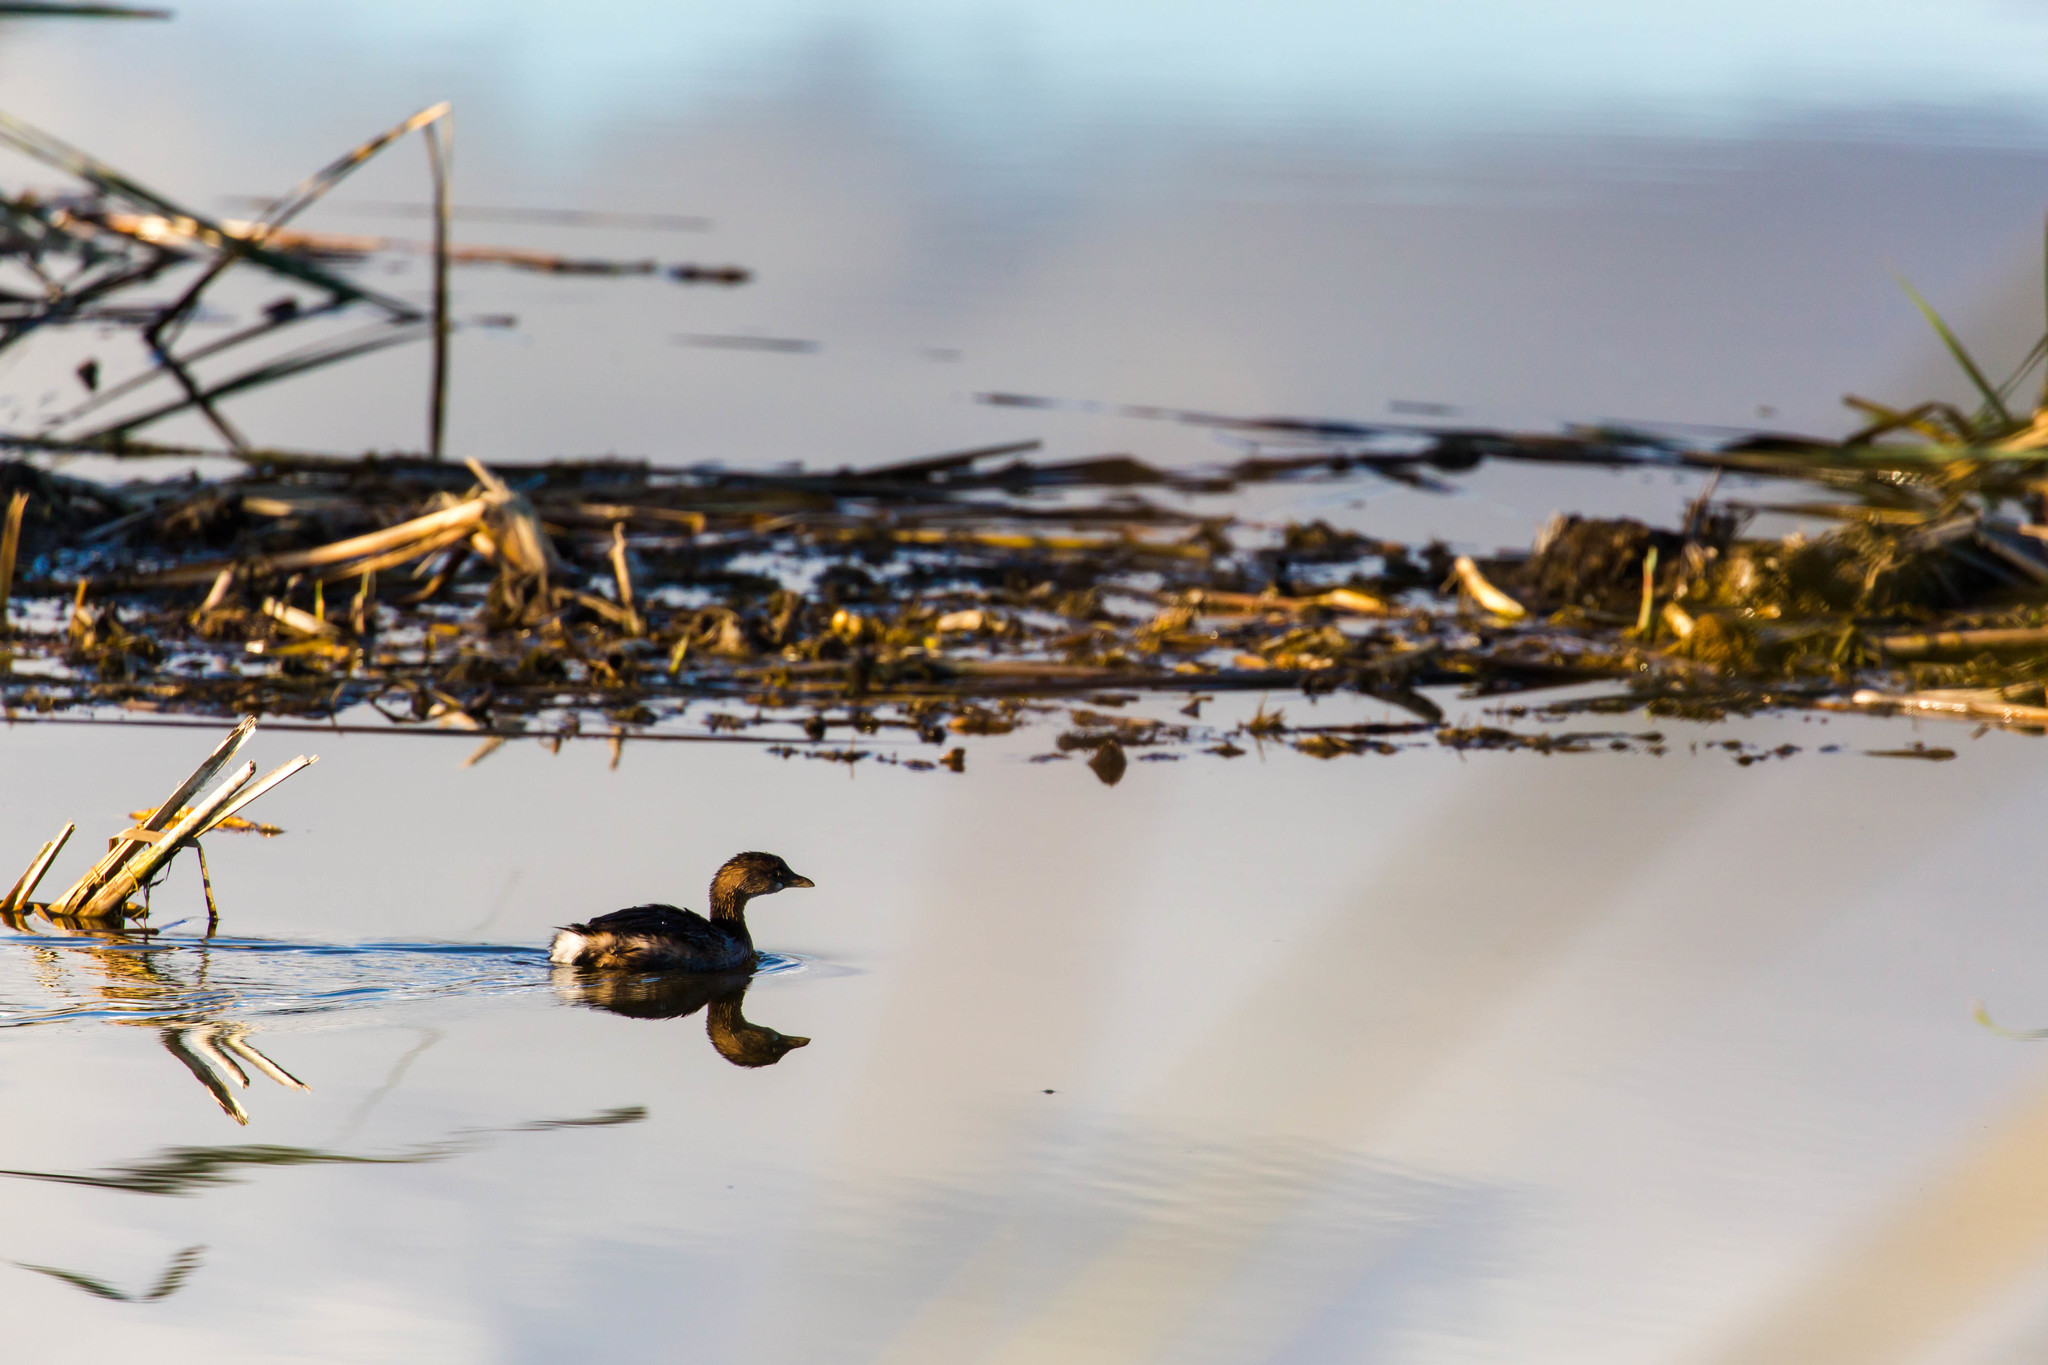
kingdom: Animalia
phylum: Chordata
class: Aves
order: Podicipediformes
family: Podicipedidae
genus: Podilymbus
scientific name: Podilymbus podiceps
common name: Pied-billed grebe
